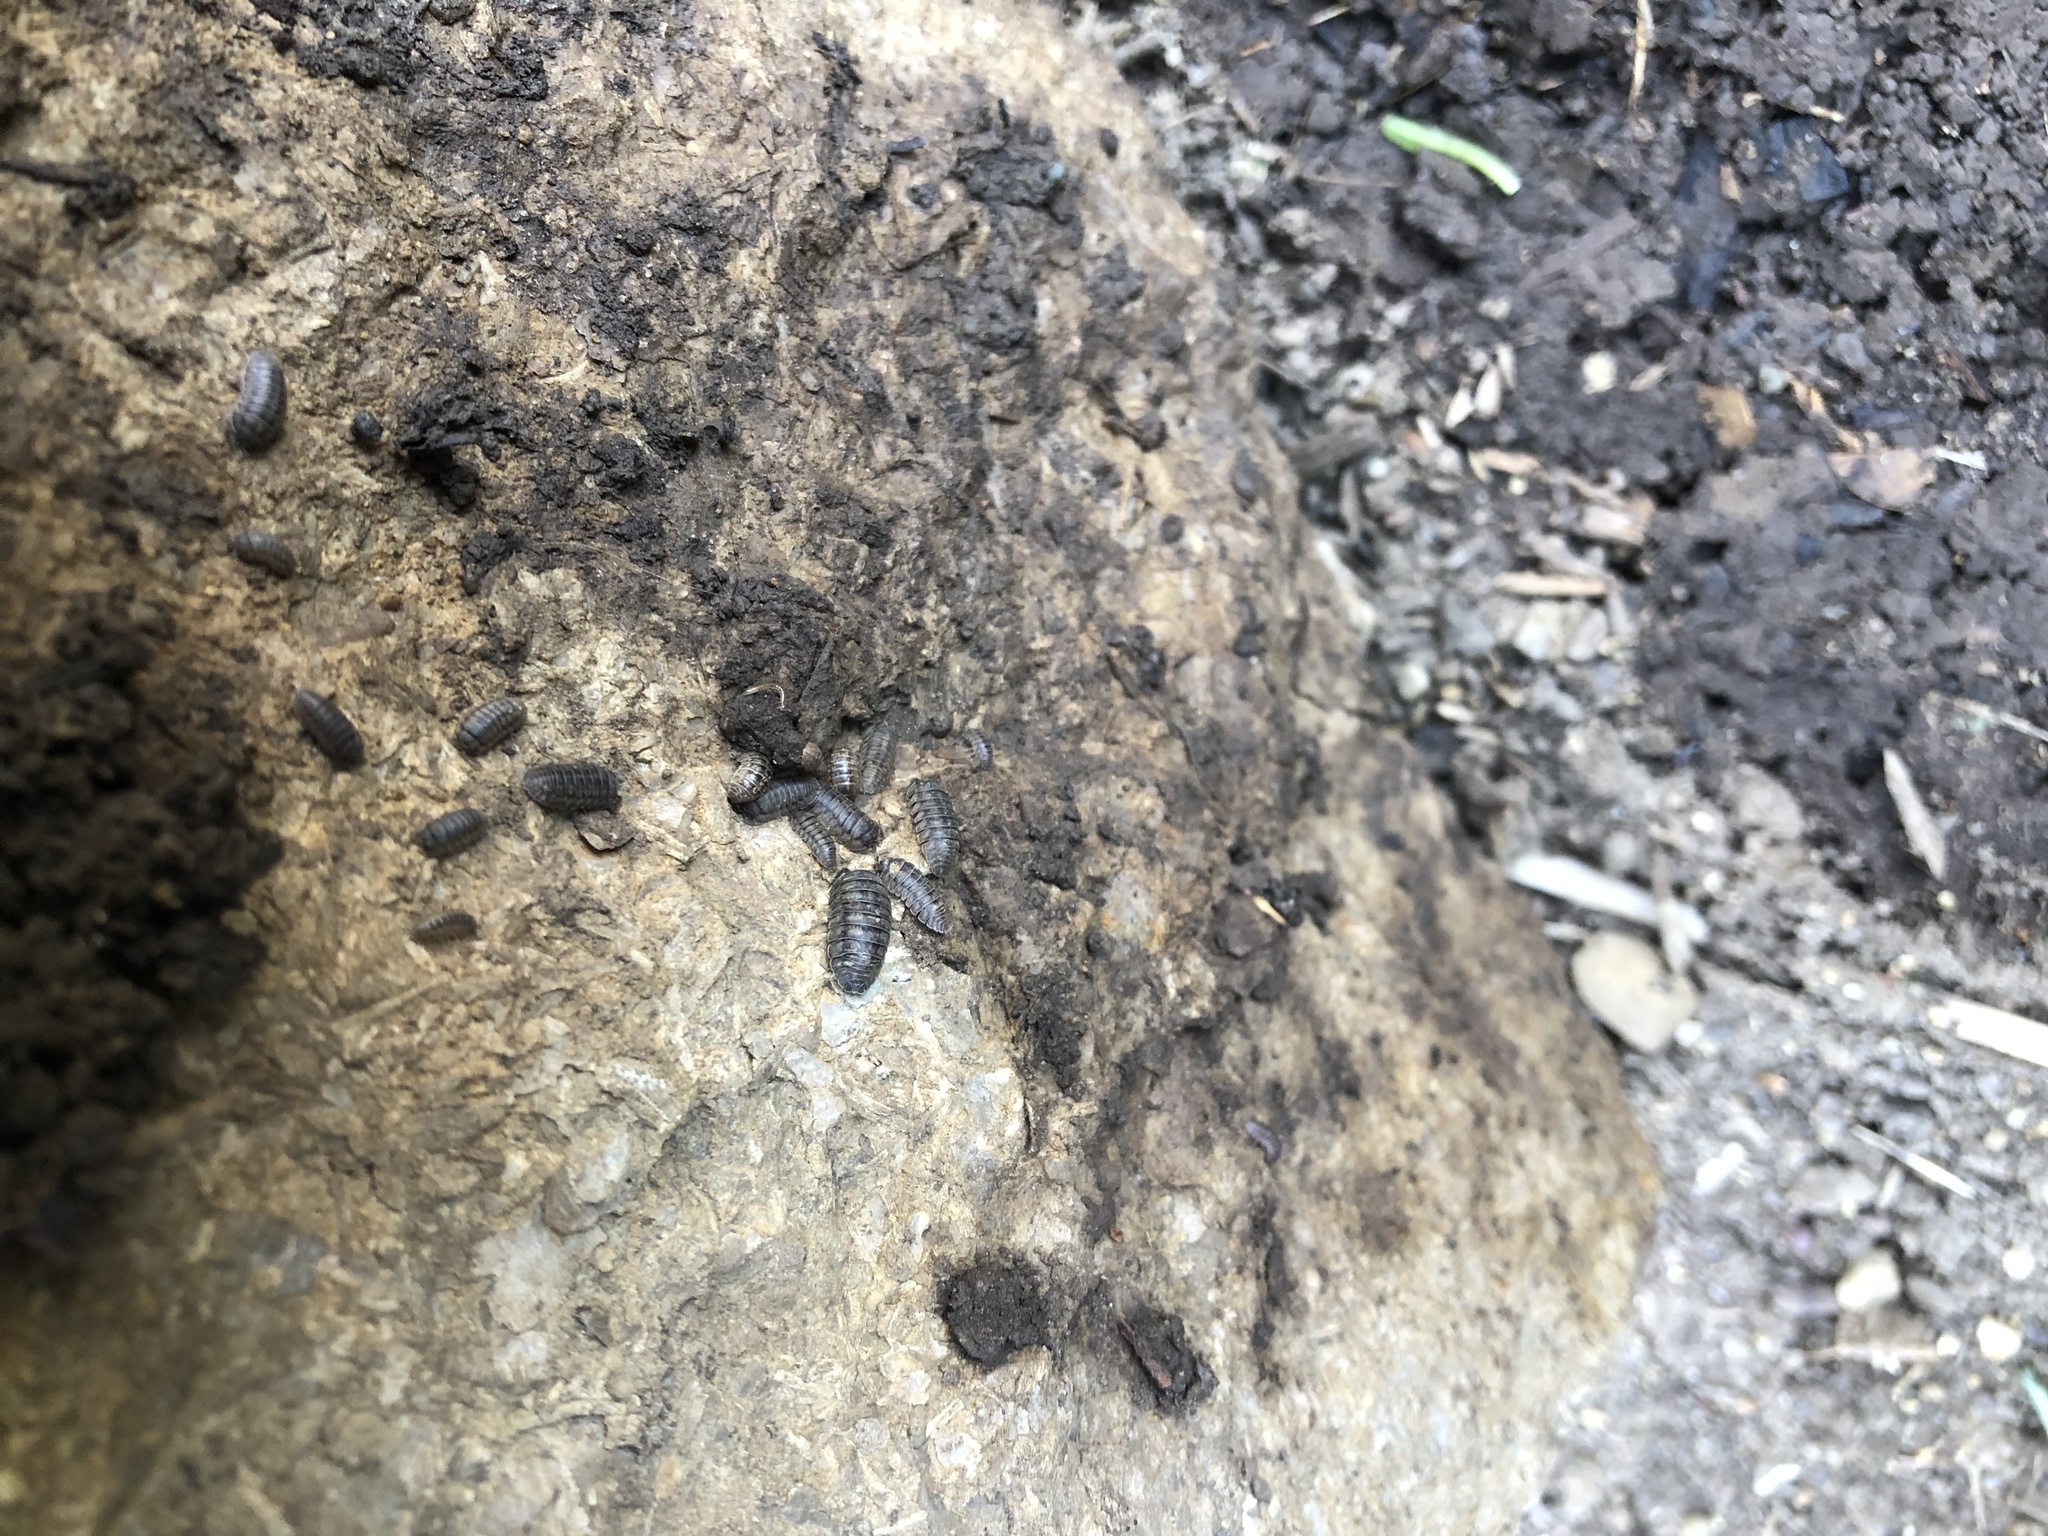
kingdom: Animalia
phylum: Arthropoda
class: Malacostraca
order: Isopoda
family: Armadillidiidae
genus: Armadillidium
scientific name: Armadillidium nasatum
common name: Isopod
